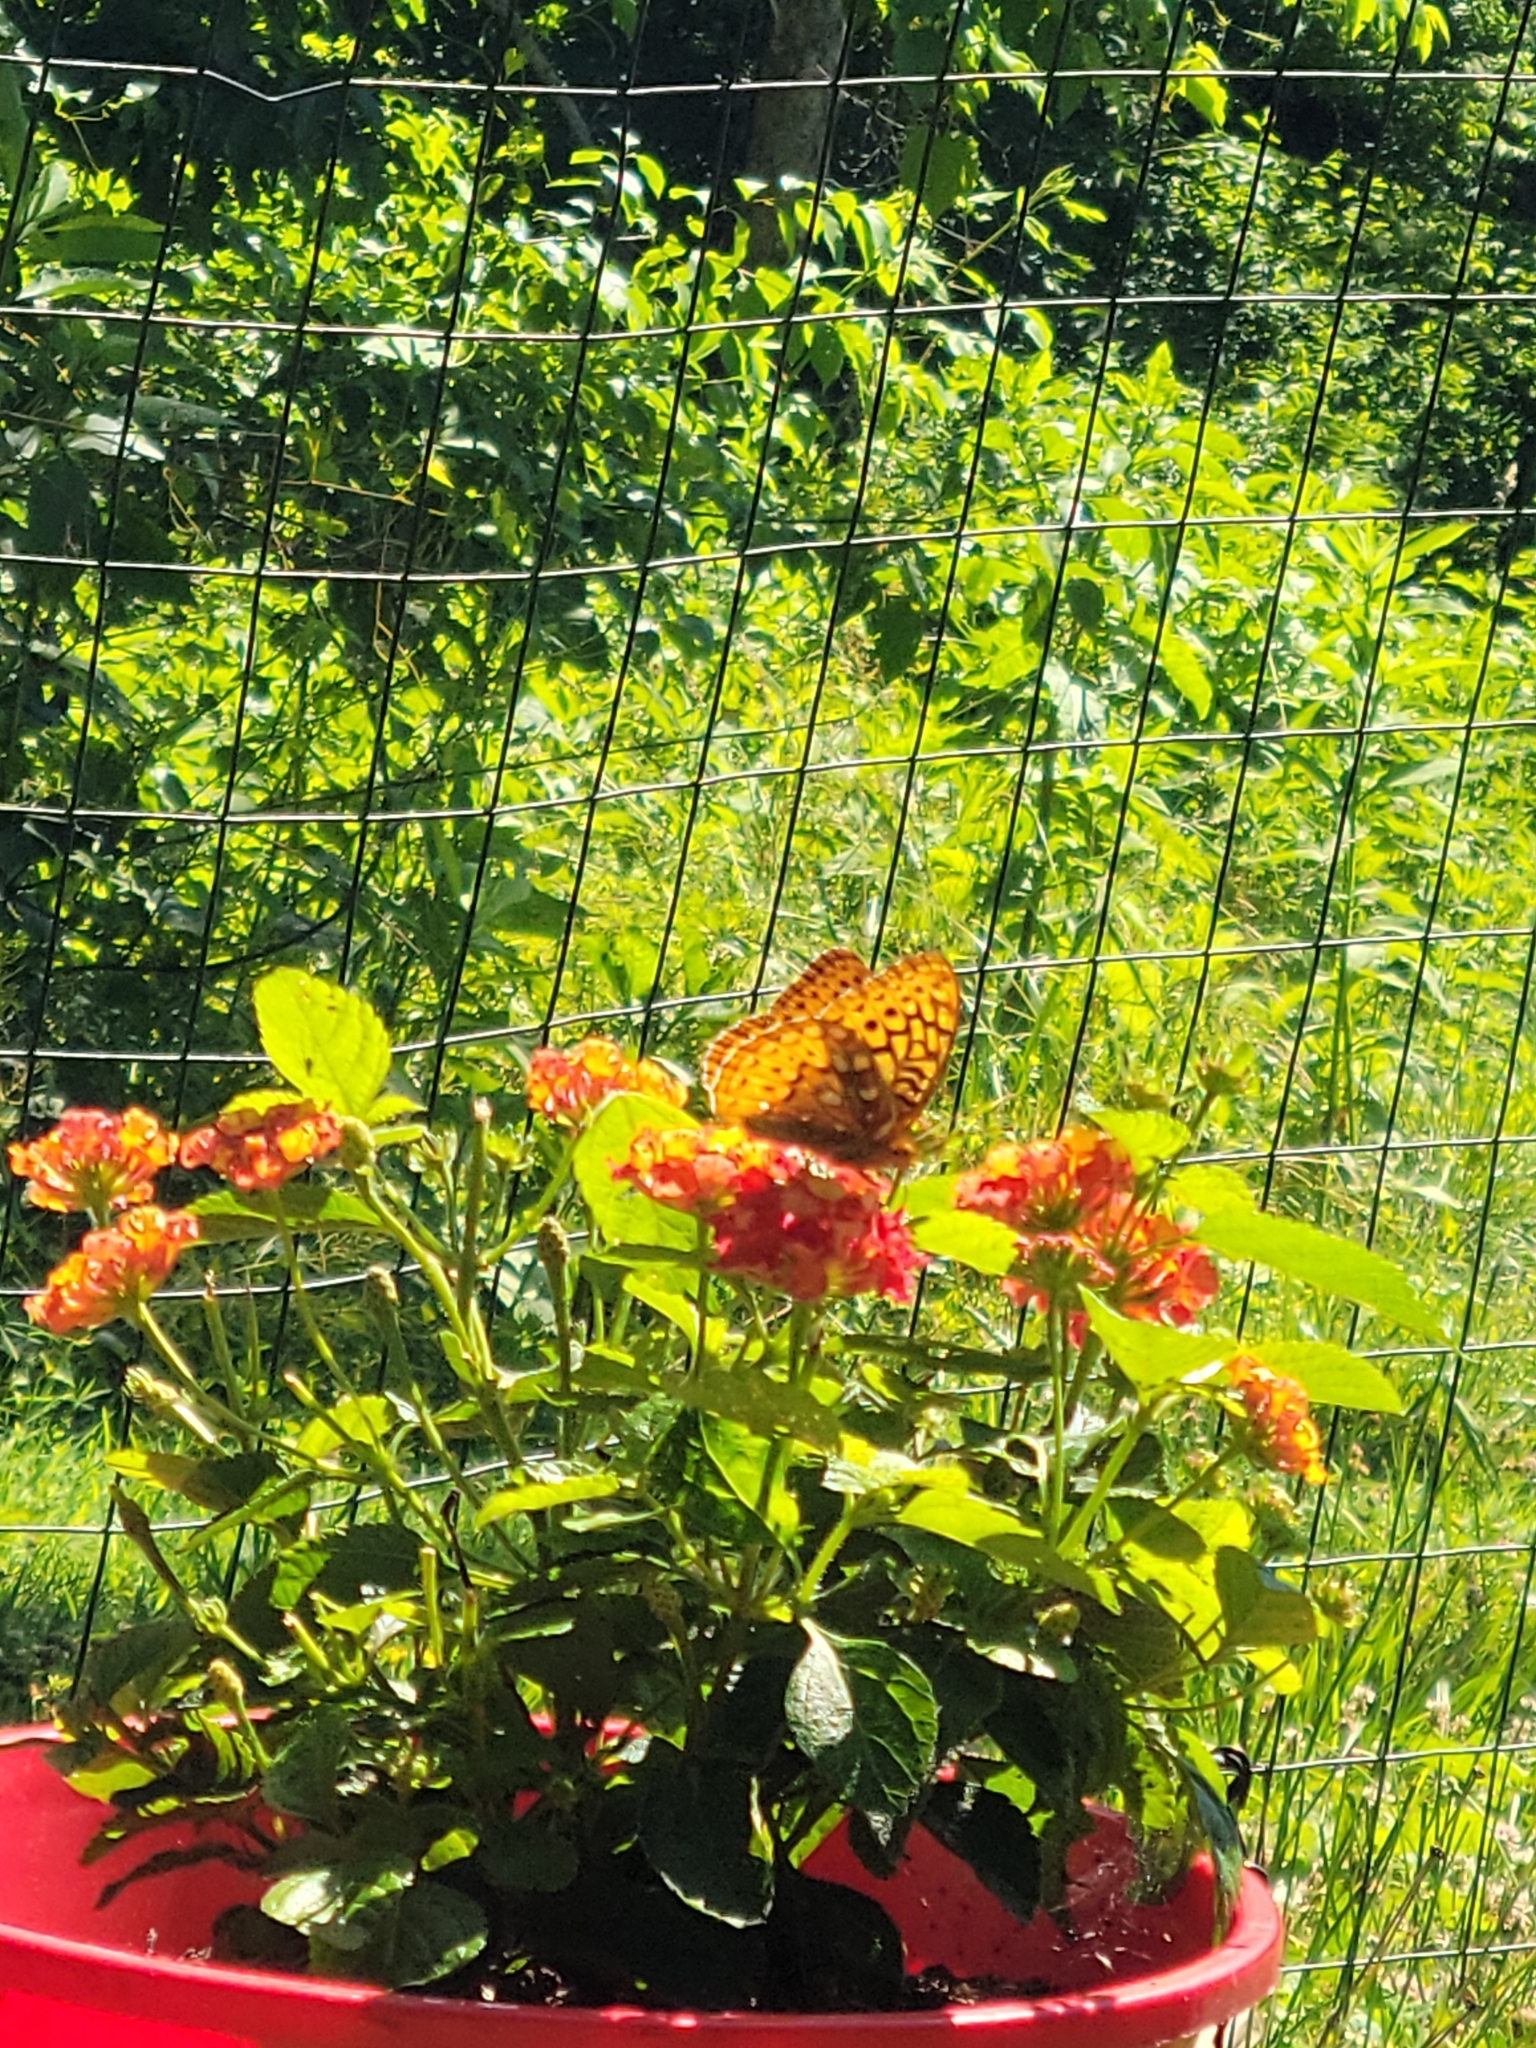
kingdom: Animalia
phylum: Arthropoda
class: Insecta
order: Lepidoptera
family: Nymphalidae
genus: Speyeria
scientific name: Speyeria cybele
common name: Great spangled fritillary
